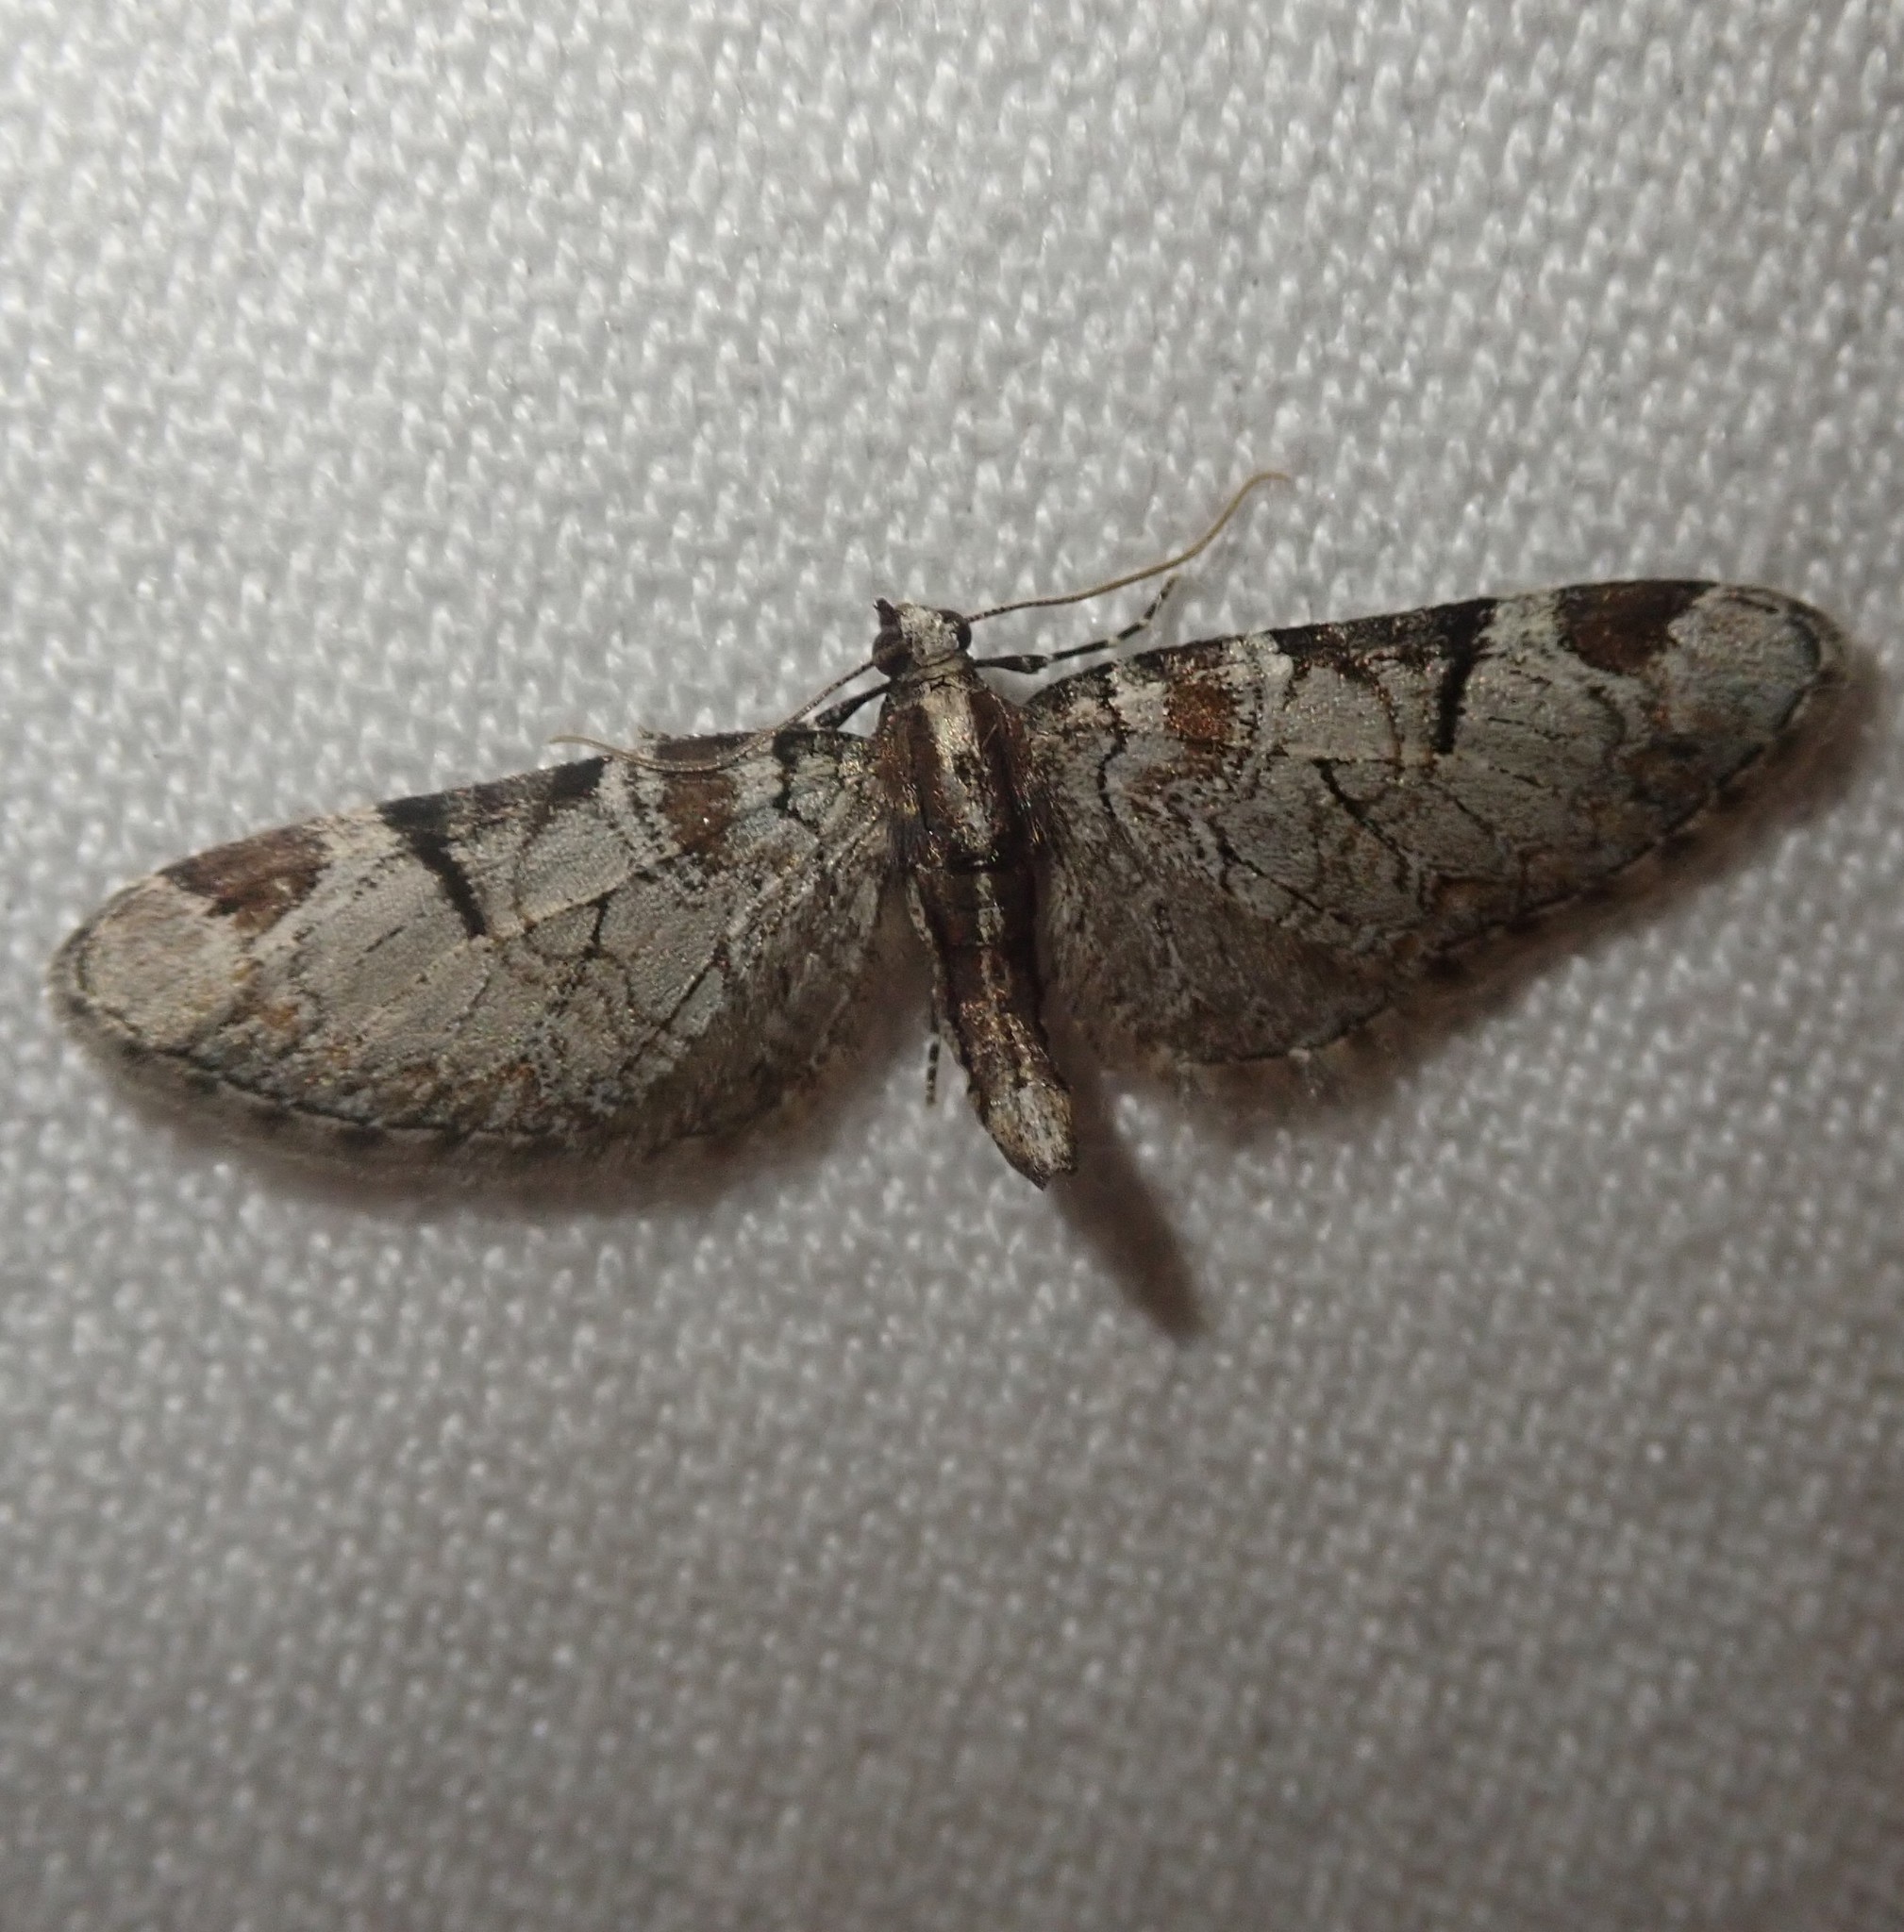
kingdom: Animalia
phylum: Arthropoda
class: Insecta
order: Lepidoptera
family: Geometridae
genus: Eupithecia
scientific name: Eupithecia insigniata
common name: Pinion-spotted pug
